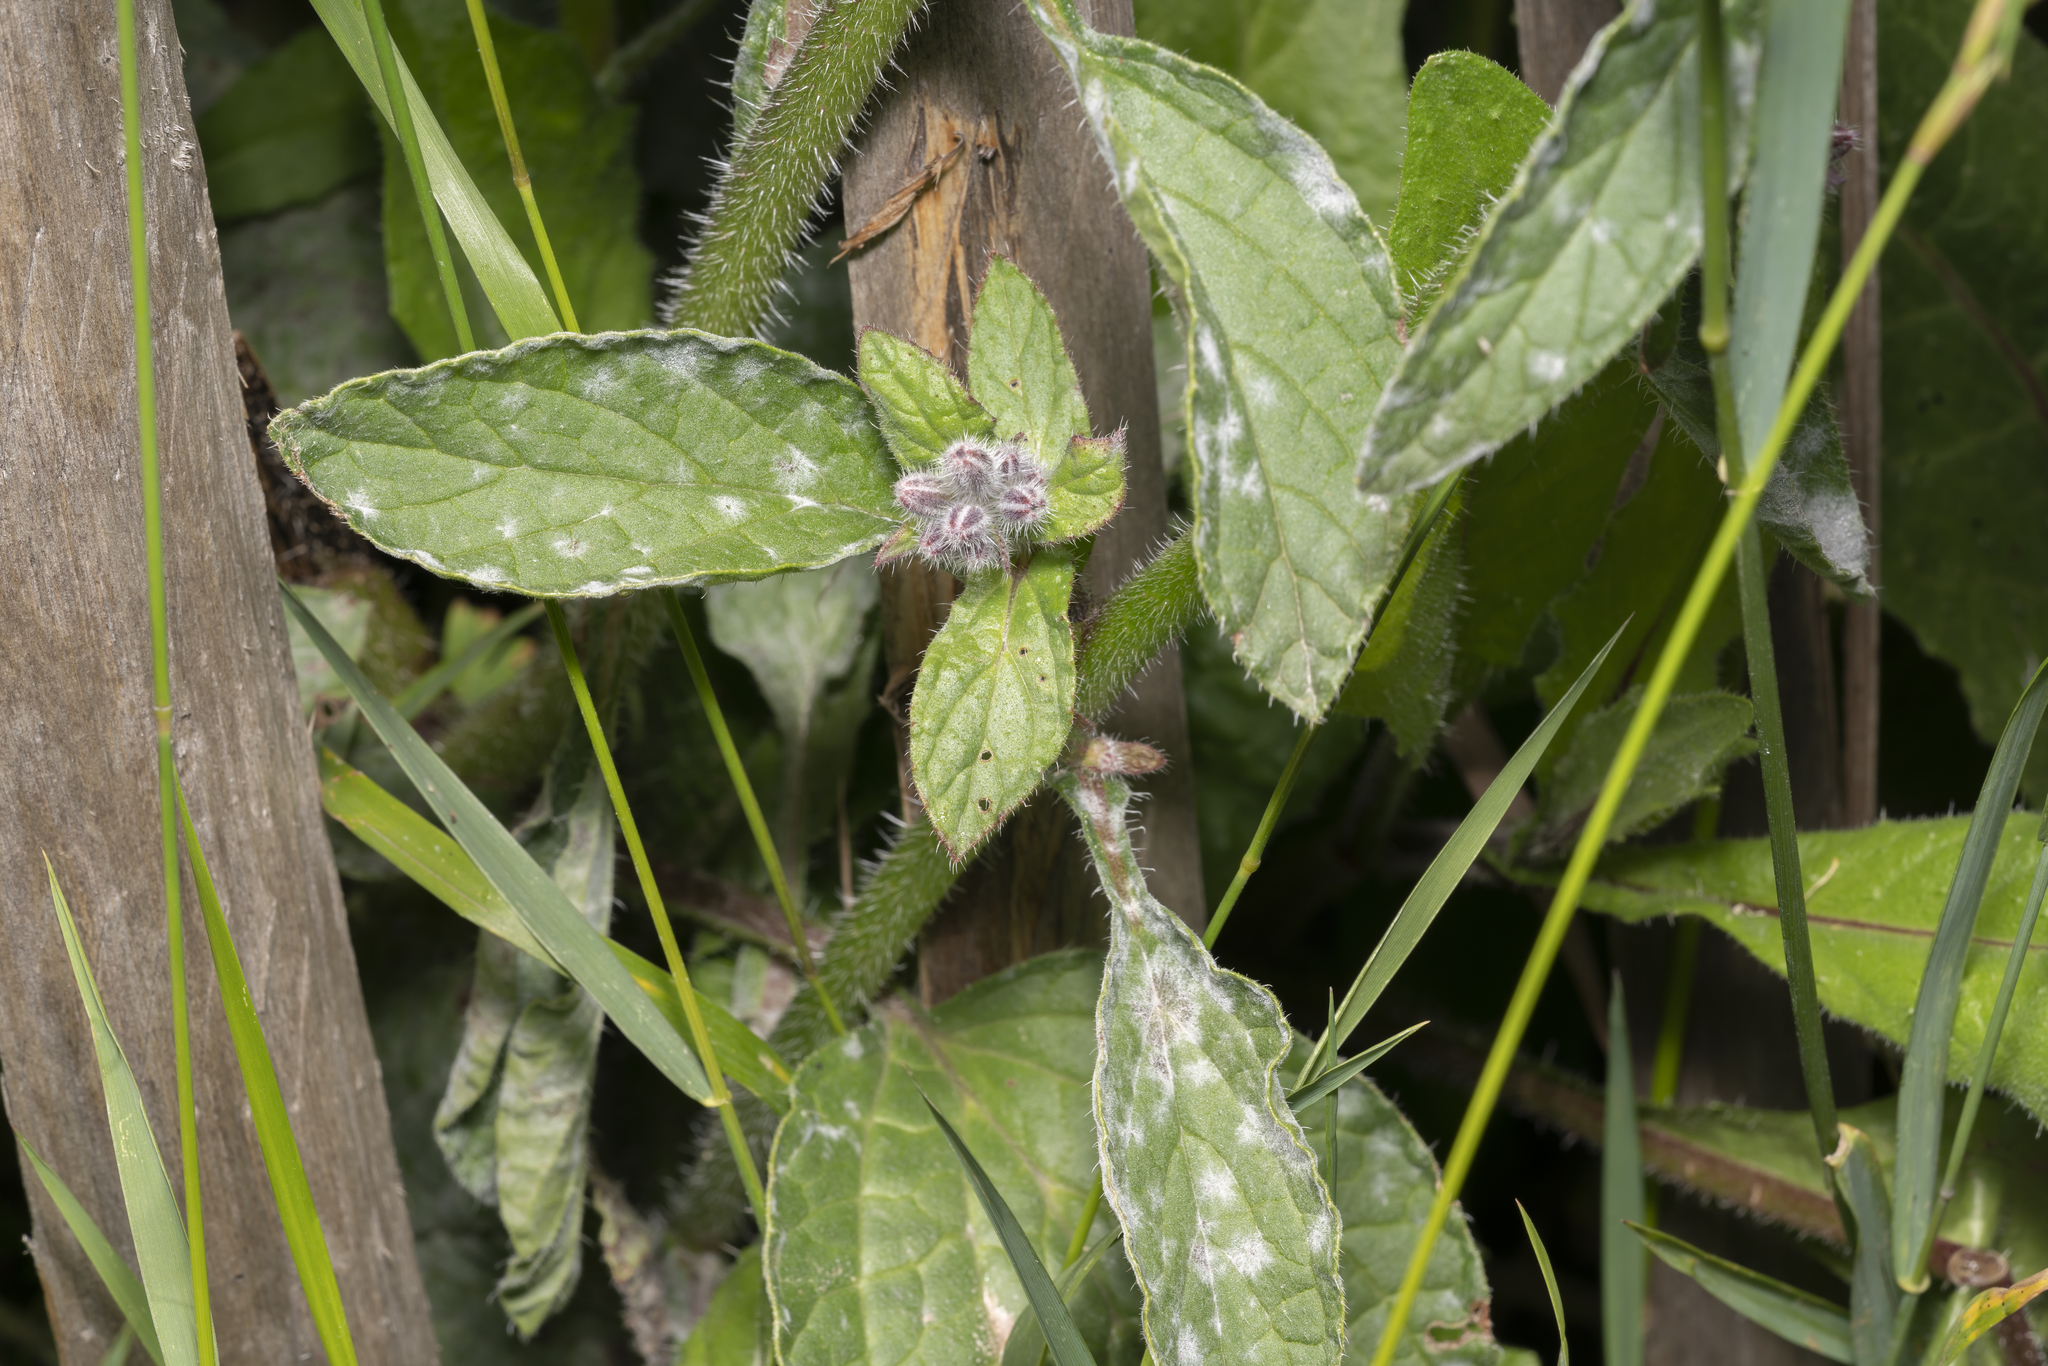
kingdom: Plantae
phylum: Tracheophyta
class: Magnoliopsida
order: Boraginales
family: Boraginaceae
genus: Borago
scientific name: Borago officinalis
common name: Borage
